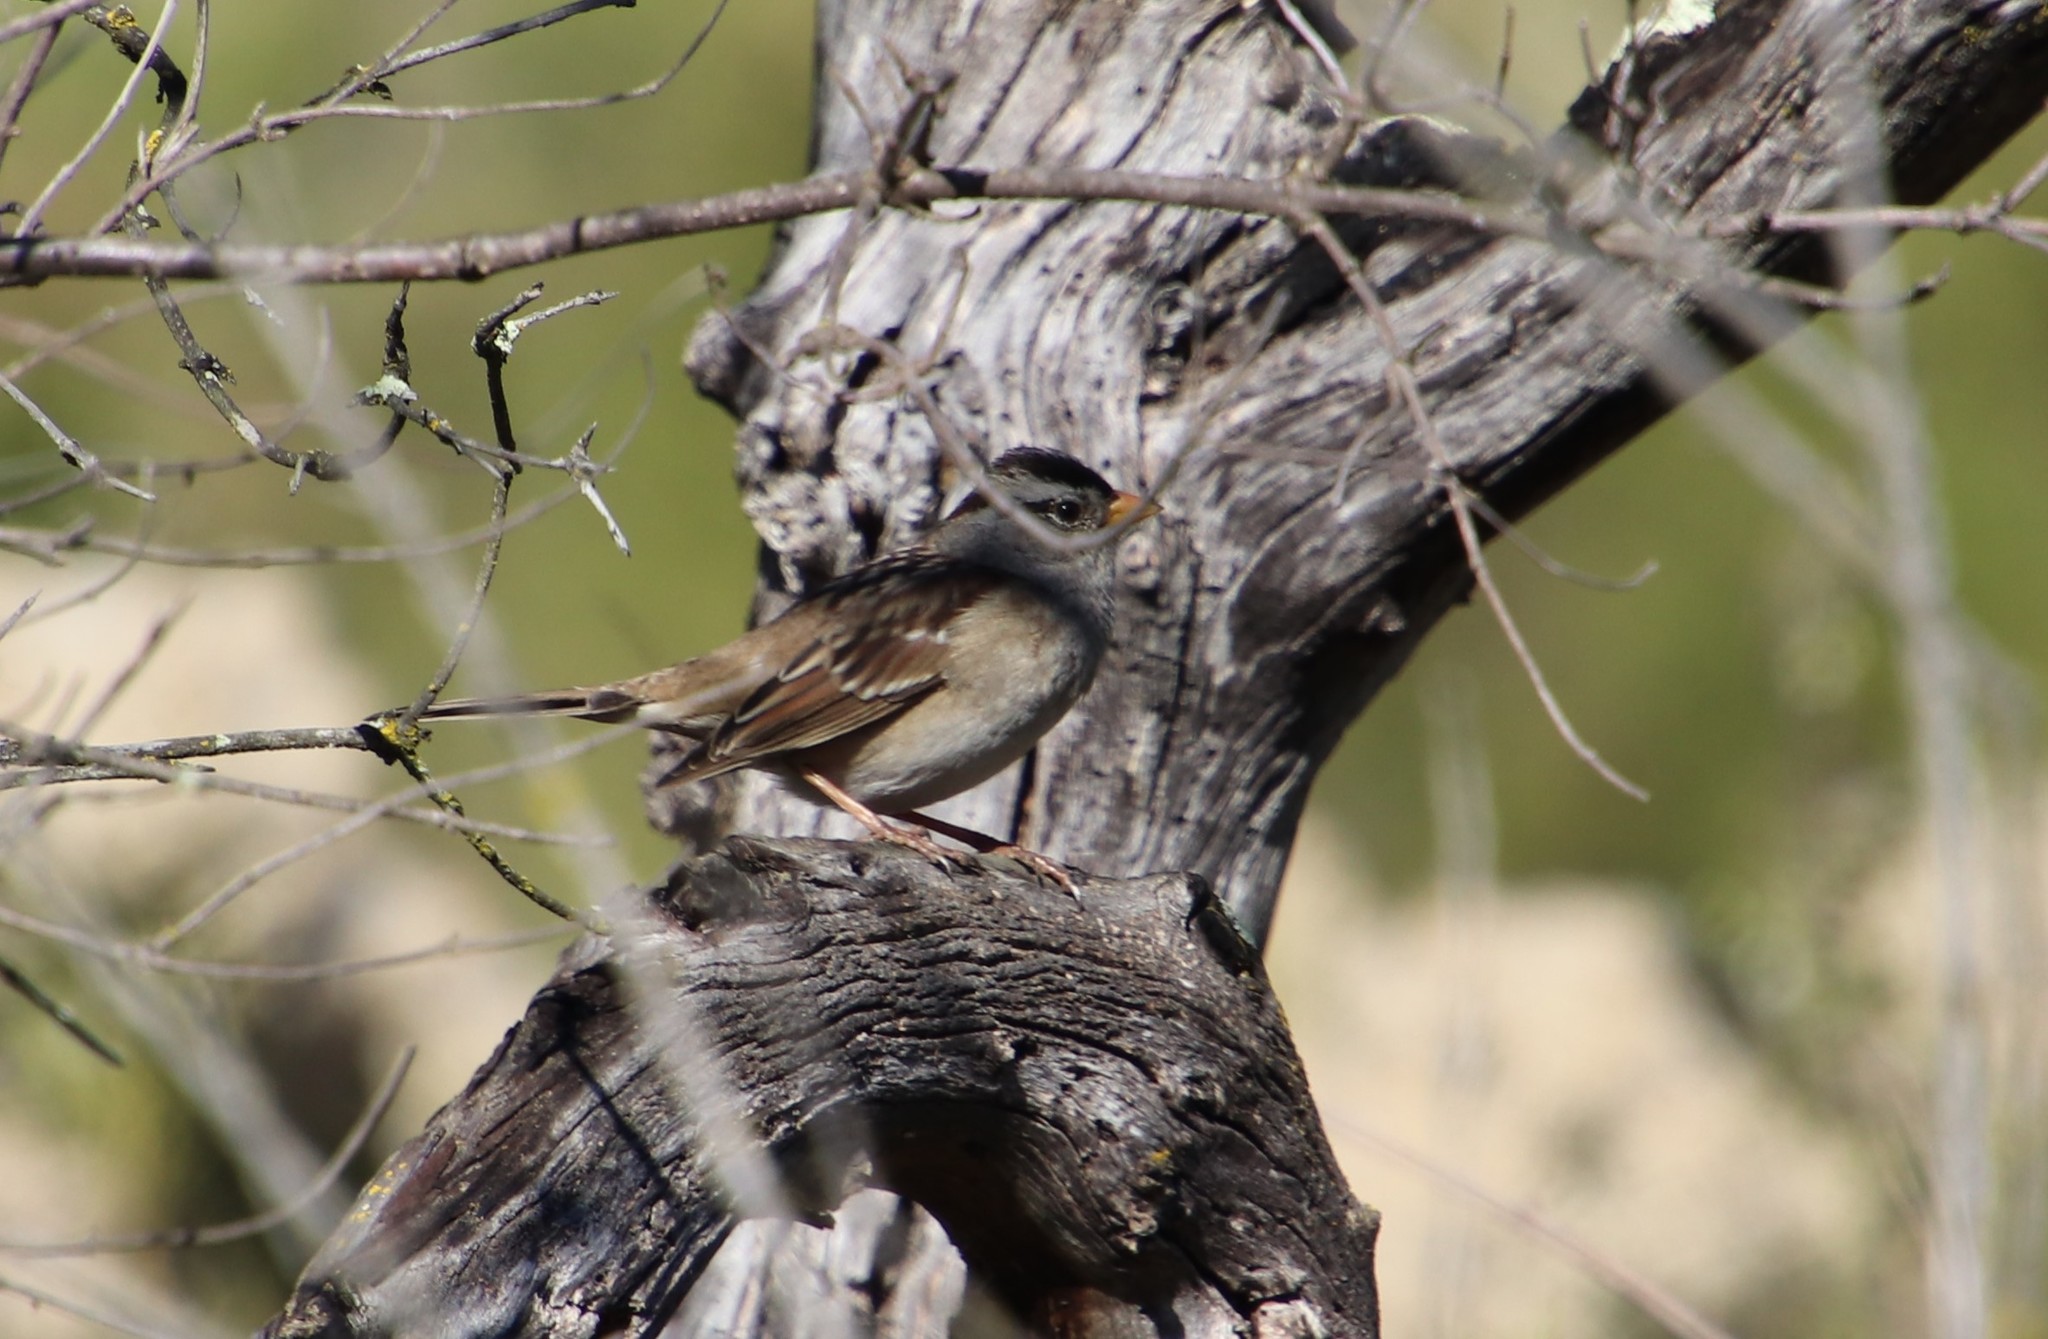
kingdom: Animalia
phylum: Chordata
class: Aves
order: Passeriformes
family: Passerellidae
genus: Zonotrichia
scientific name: Zonotrichia leucophrys
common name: White-crowned sparrow
